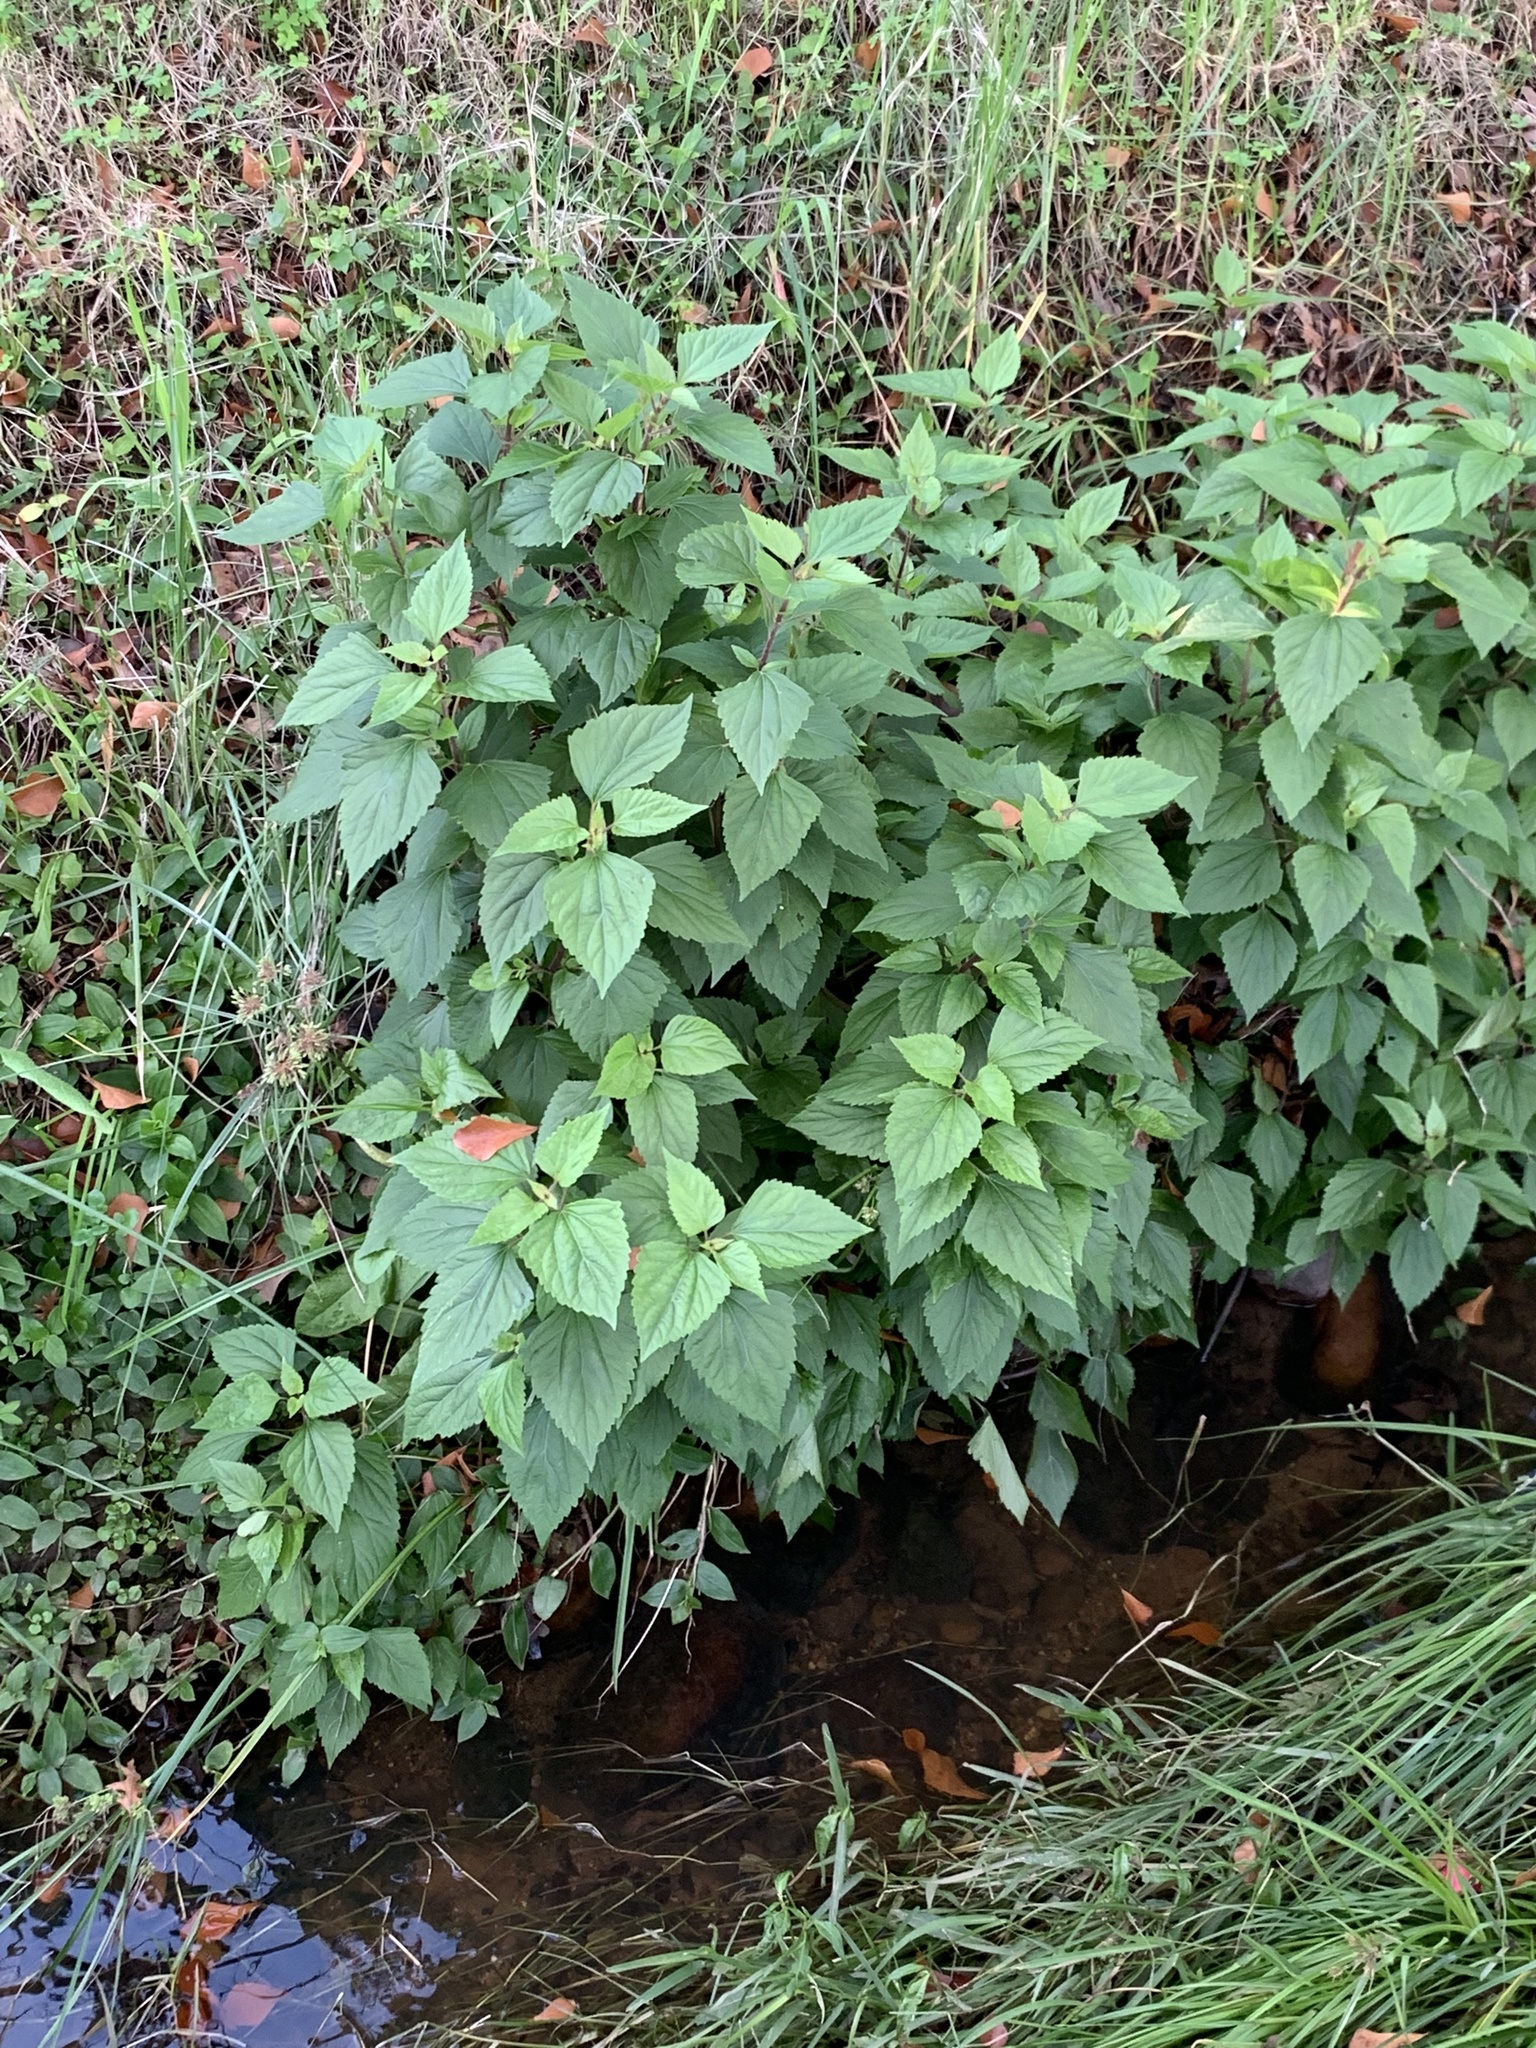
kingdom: Plantae
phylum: Tracheophyta
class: Magnoliopsida
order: Asterales
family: Asteraceae
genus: Ageratina
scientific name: Ageratina adenophora
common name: Sticky snakeroot
